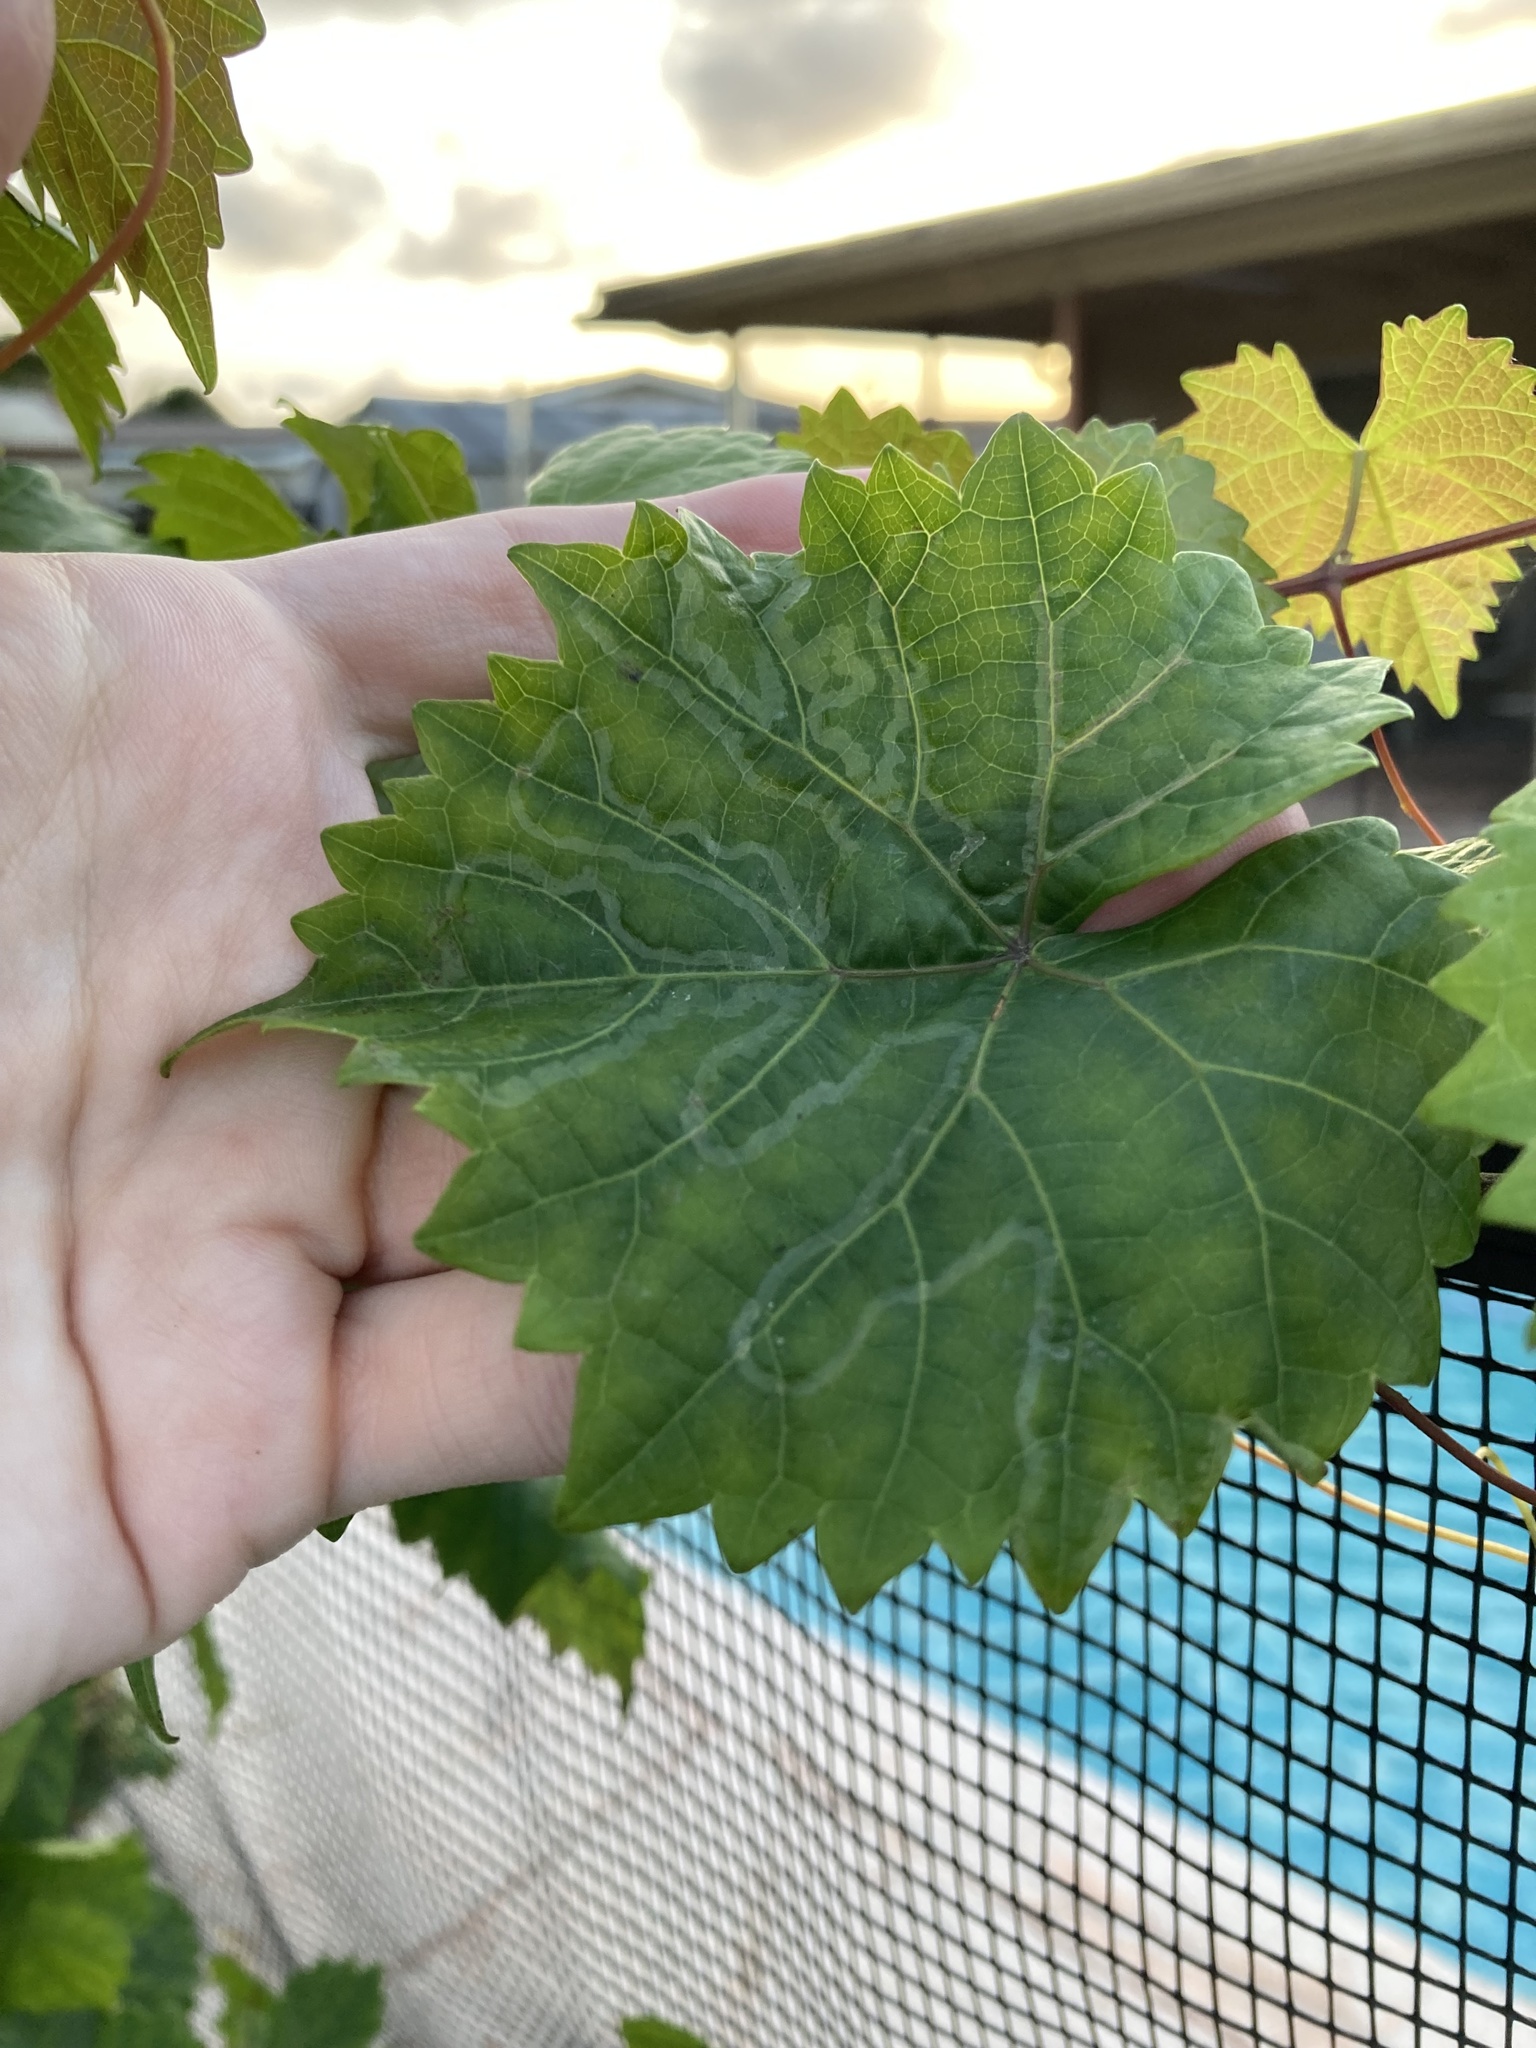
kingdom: Animalia
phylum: Arthropoda
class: Insecta
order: Lepidoptera
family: Gracillariidae
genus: Phyllocnistis
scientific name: Phyllocnistis vitegenella
